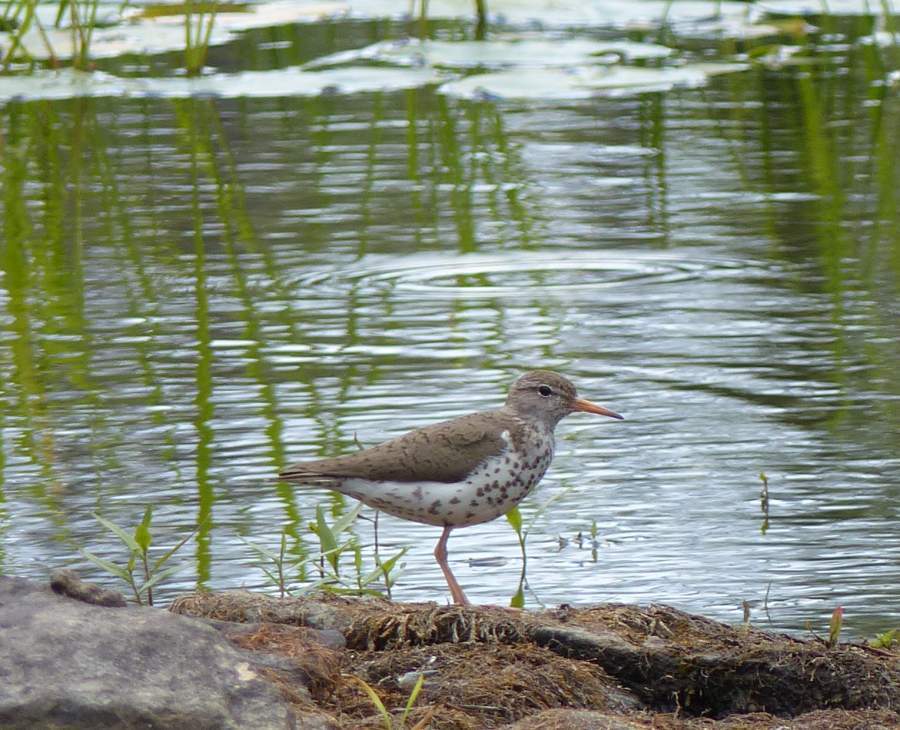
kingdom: Animalia
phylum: Chordata
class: Aves
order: Charadriiformes
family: Scolopacidae
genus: Actitis
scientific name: Actitis macularius
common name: Spotted sandpiper
